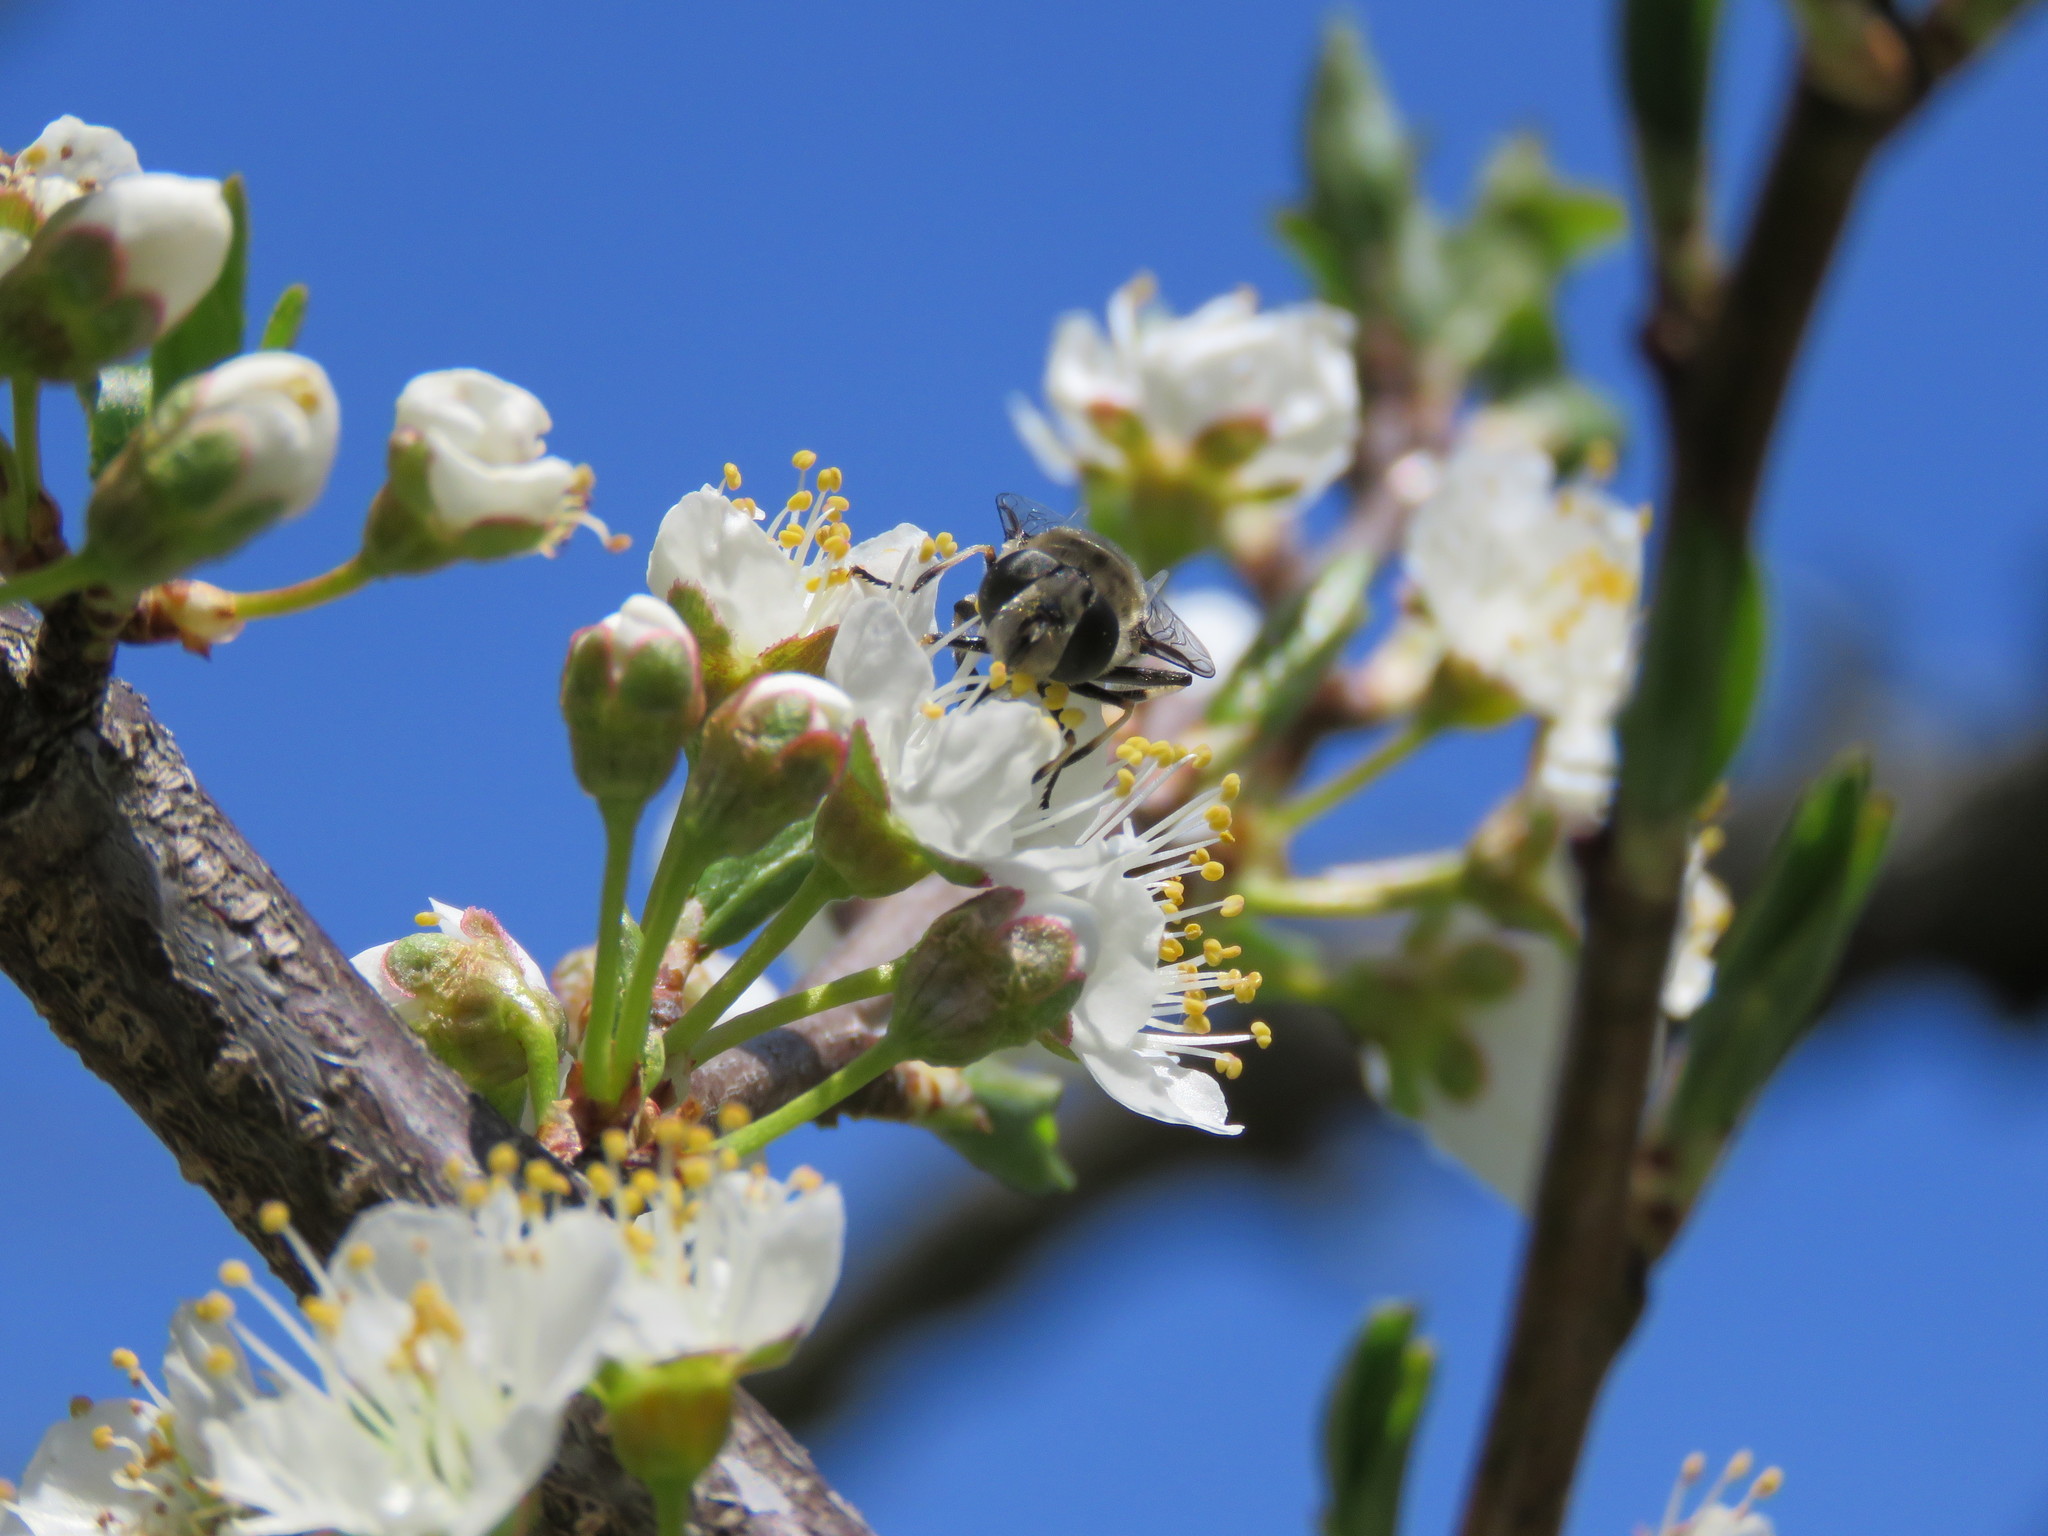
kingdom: Animalia
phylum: Arthropoda
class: Insecta
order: Diptera
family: Syrphidae
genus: Eristalis
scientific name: Eristalis dimidiata
